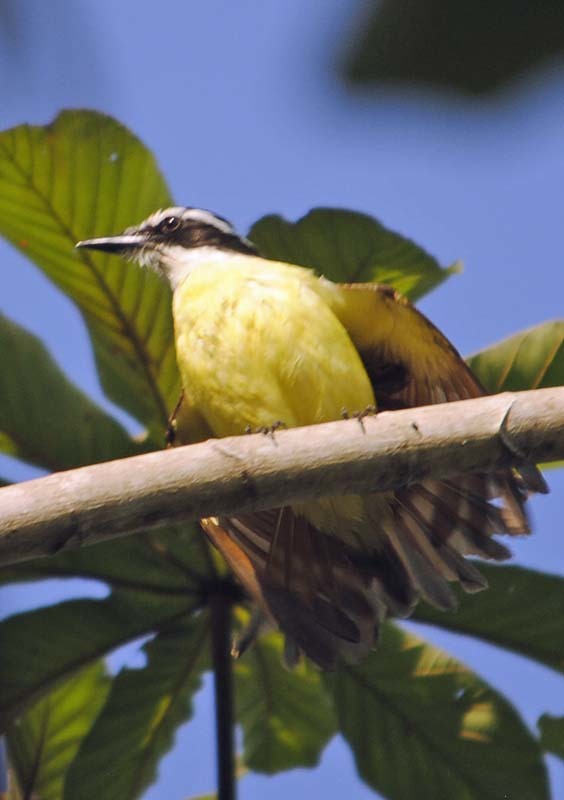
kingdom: Animalia
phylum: Chordata
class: Aves
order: Passeriformes
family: Tyrannidae
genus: Pitangus
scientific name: Pitangus sulphuratus
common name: Great kiskadee
